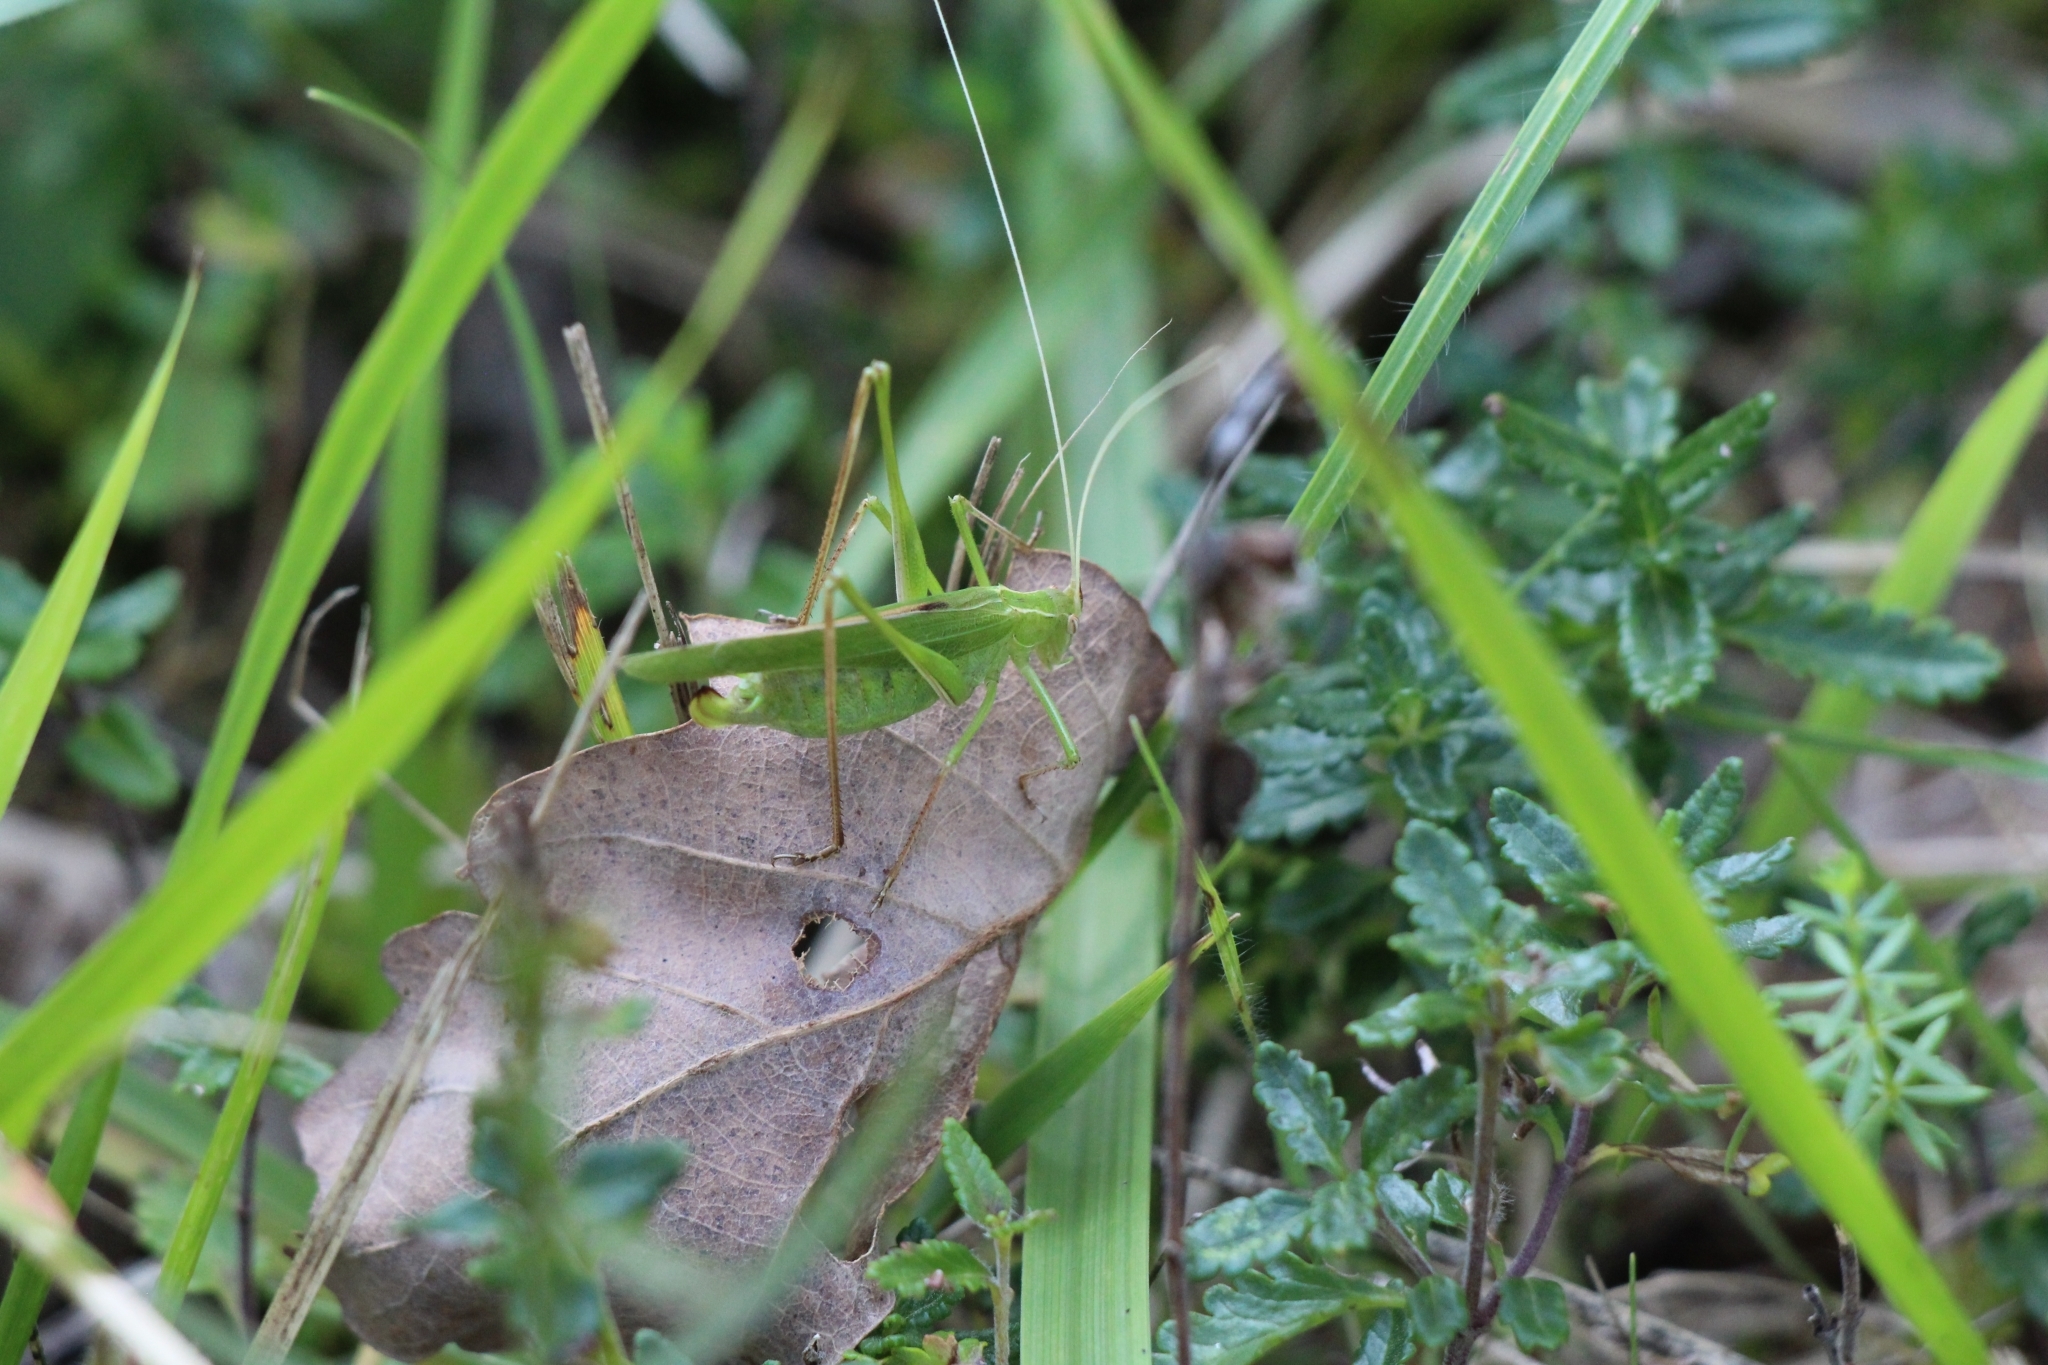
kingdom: Animalia
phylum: Arthropoda
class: Insecta
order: Orthoptera
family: Tettigoniidae
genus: Tylopsis
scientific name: Tylopsis lilifolia
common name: Lily bush-cricket
